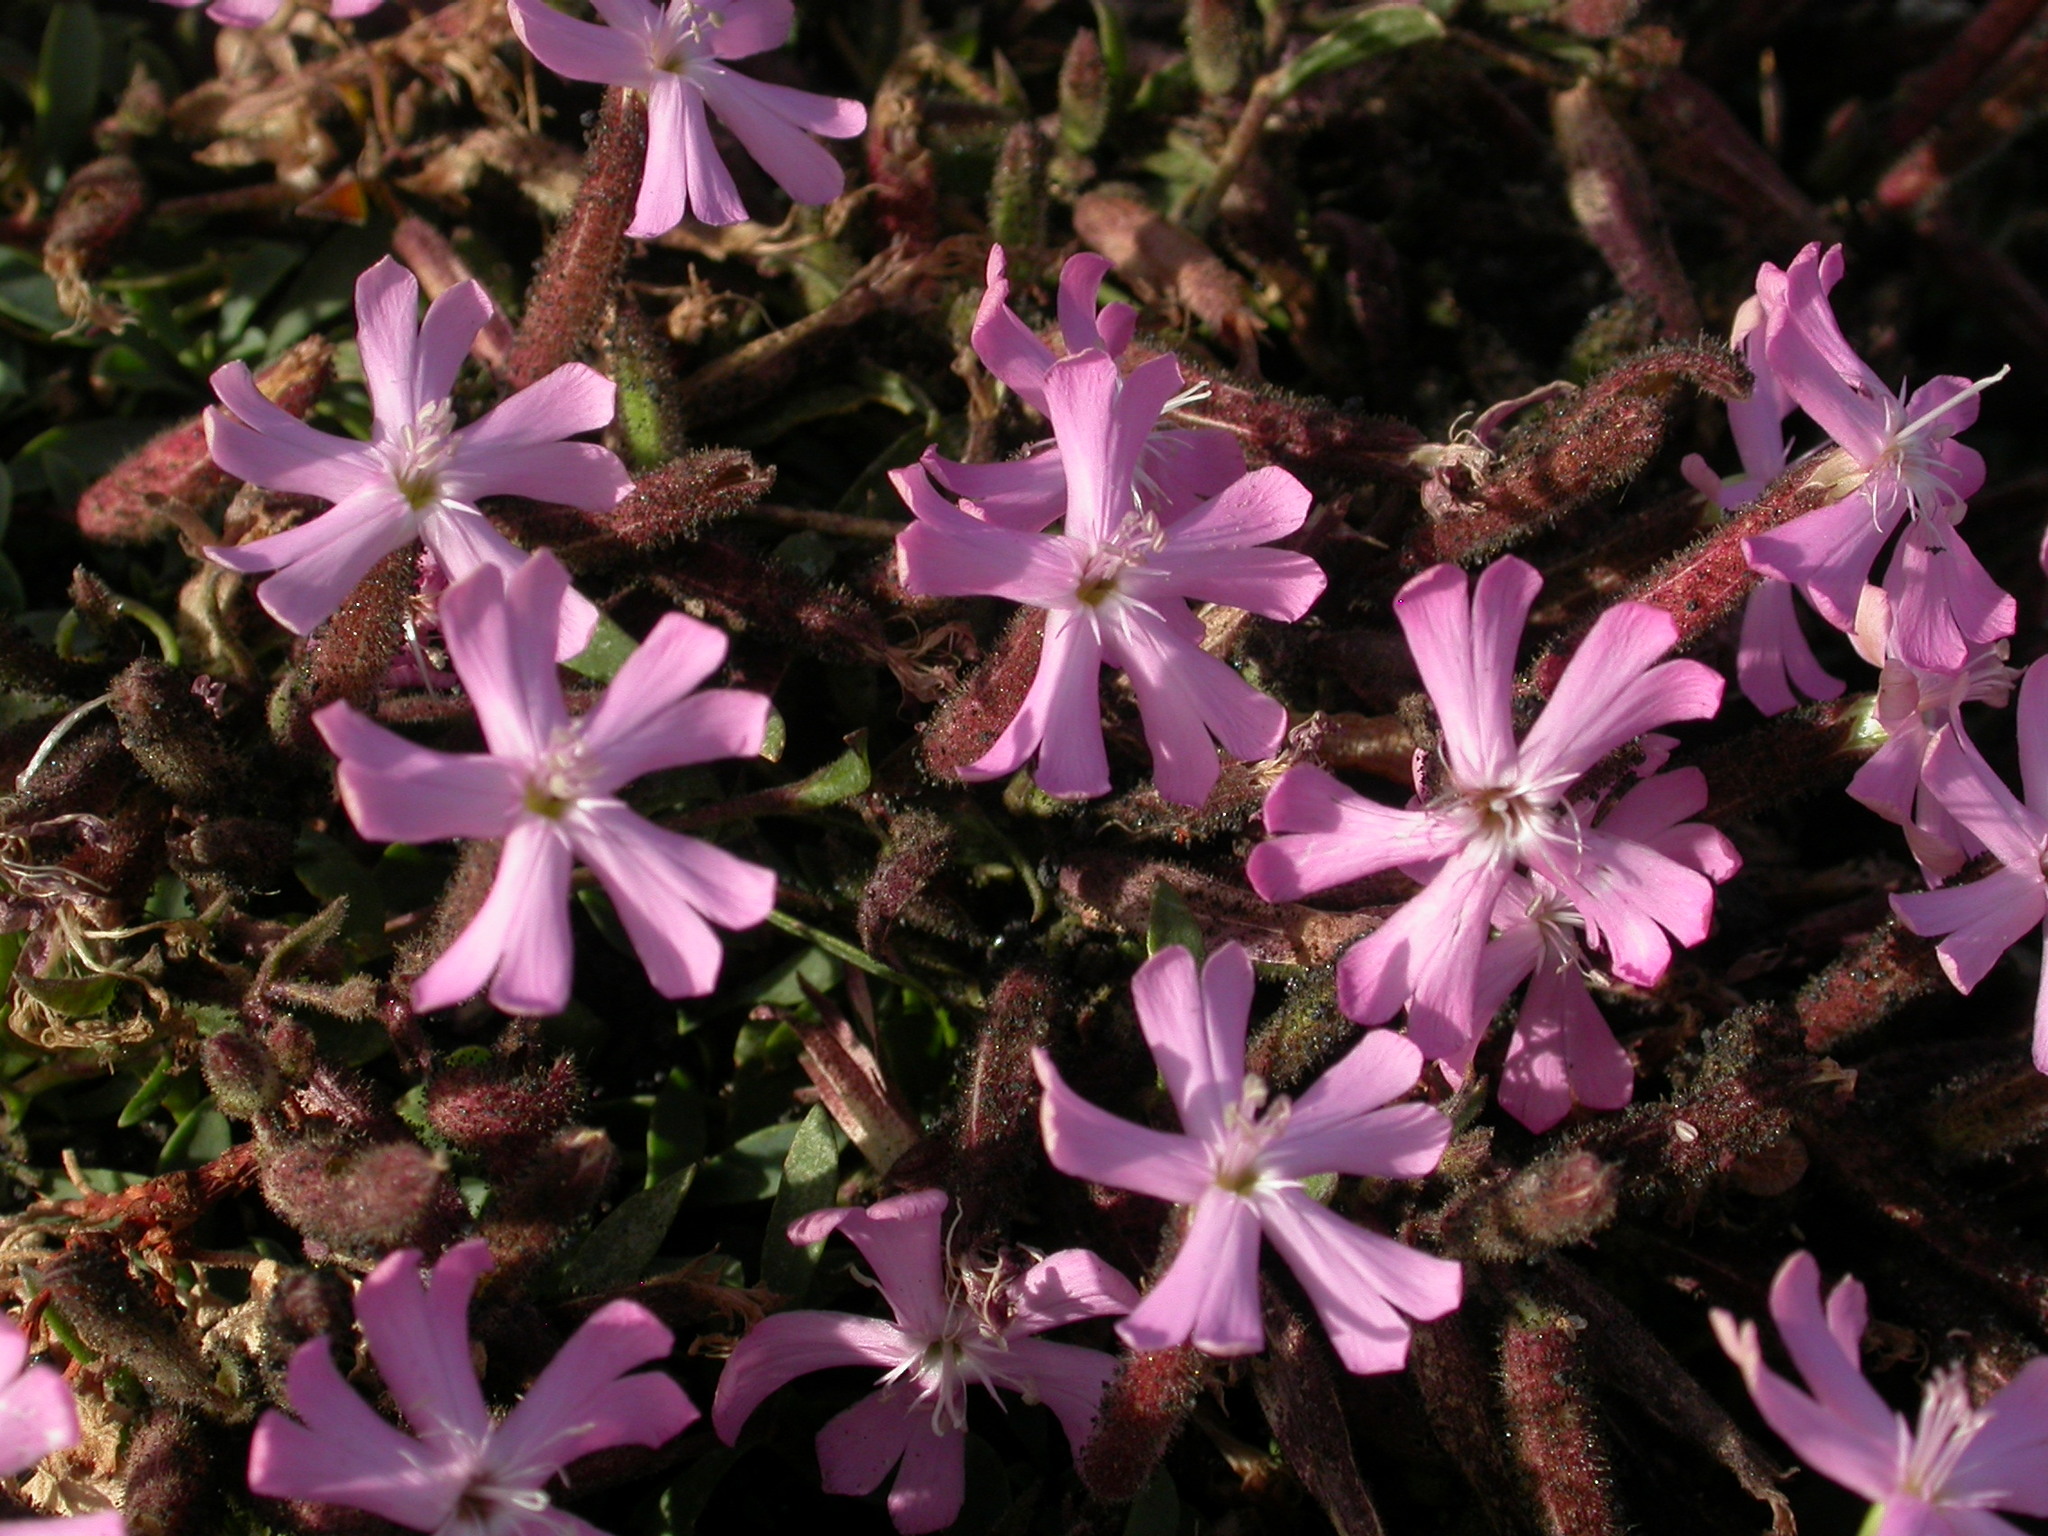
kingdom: Plantae
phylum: Tracheophyta
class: Magnoliopsida
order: Caryophyllales
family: Caryophyllaceae
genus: Saponaria
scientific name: Saponaria sicula
